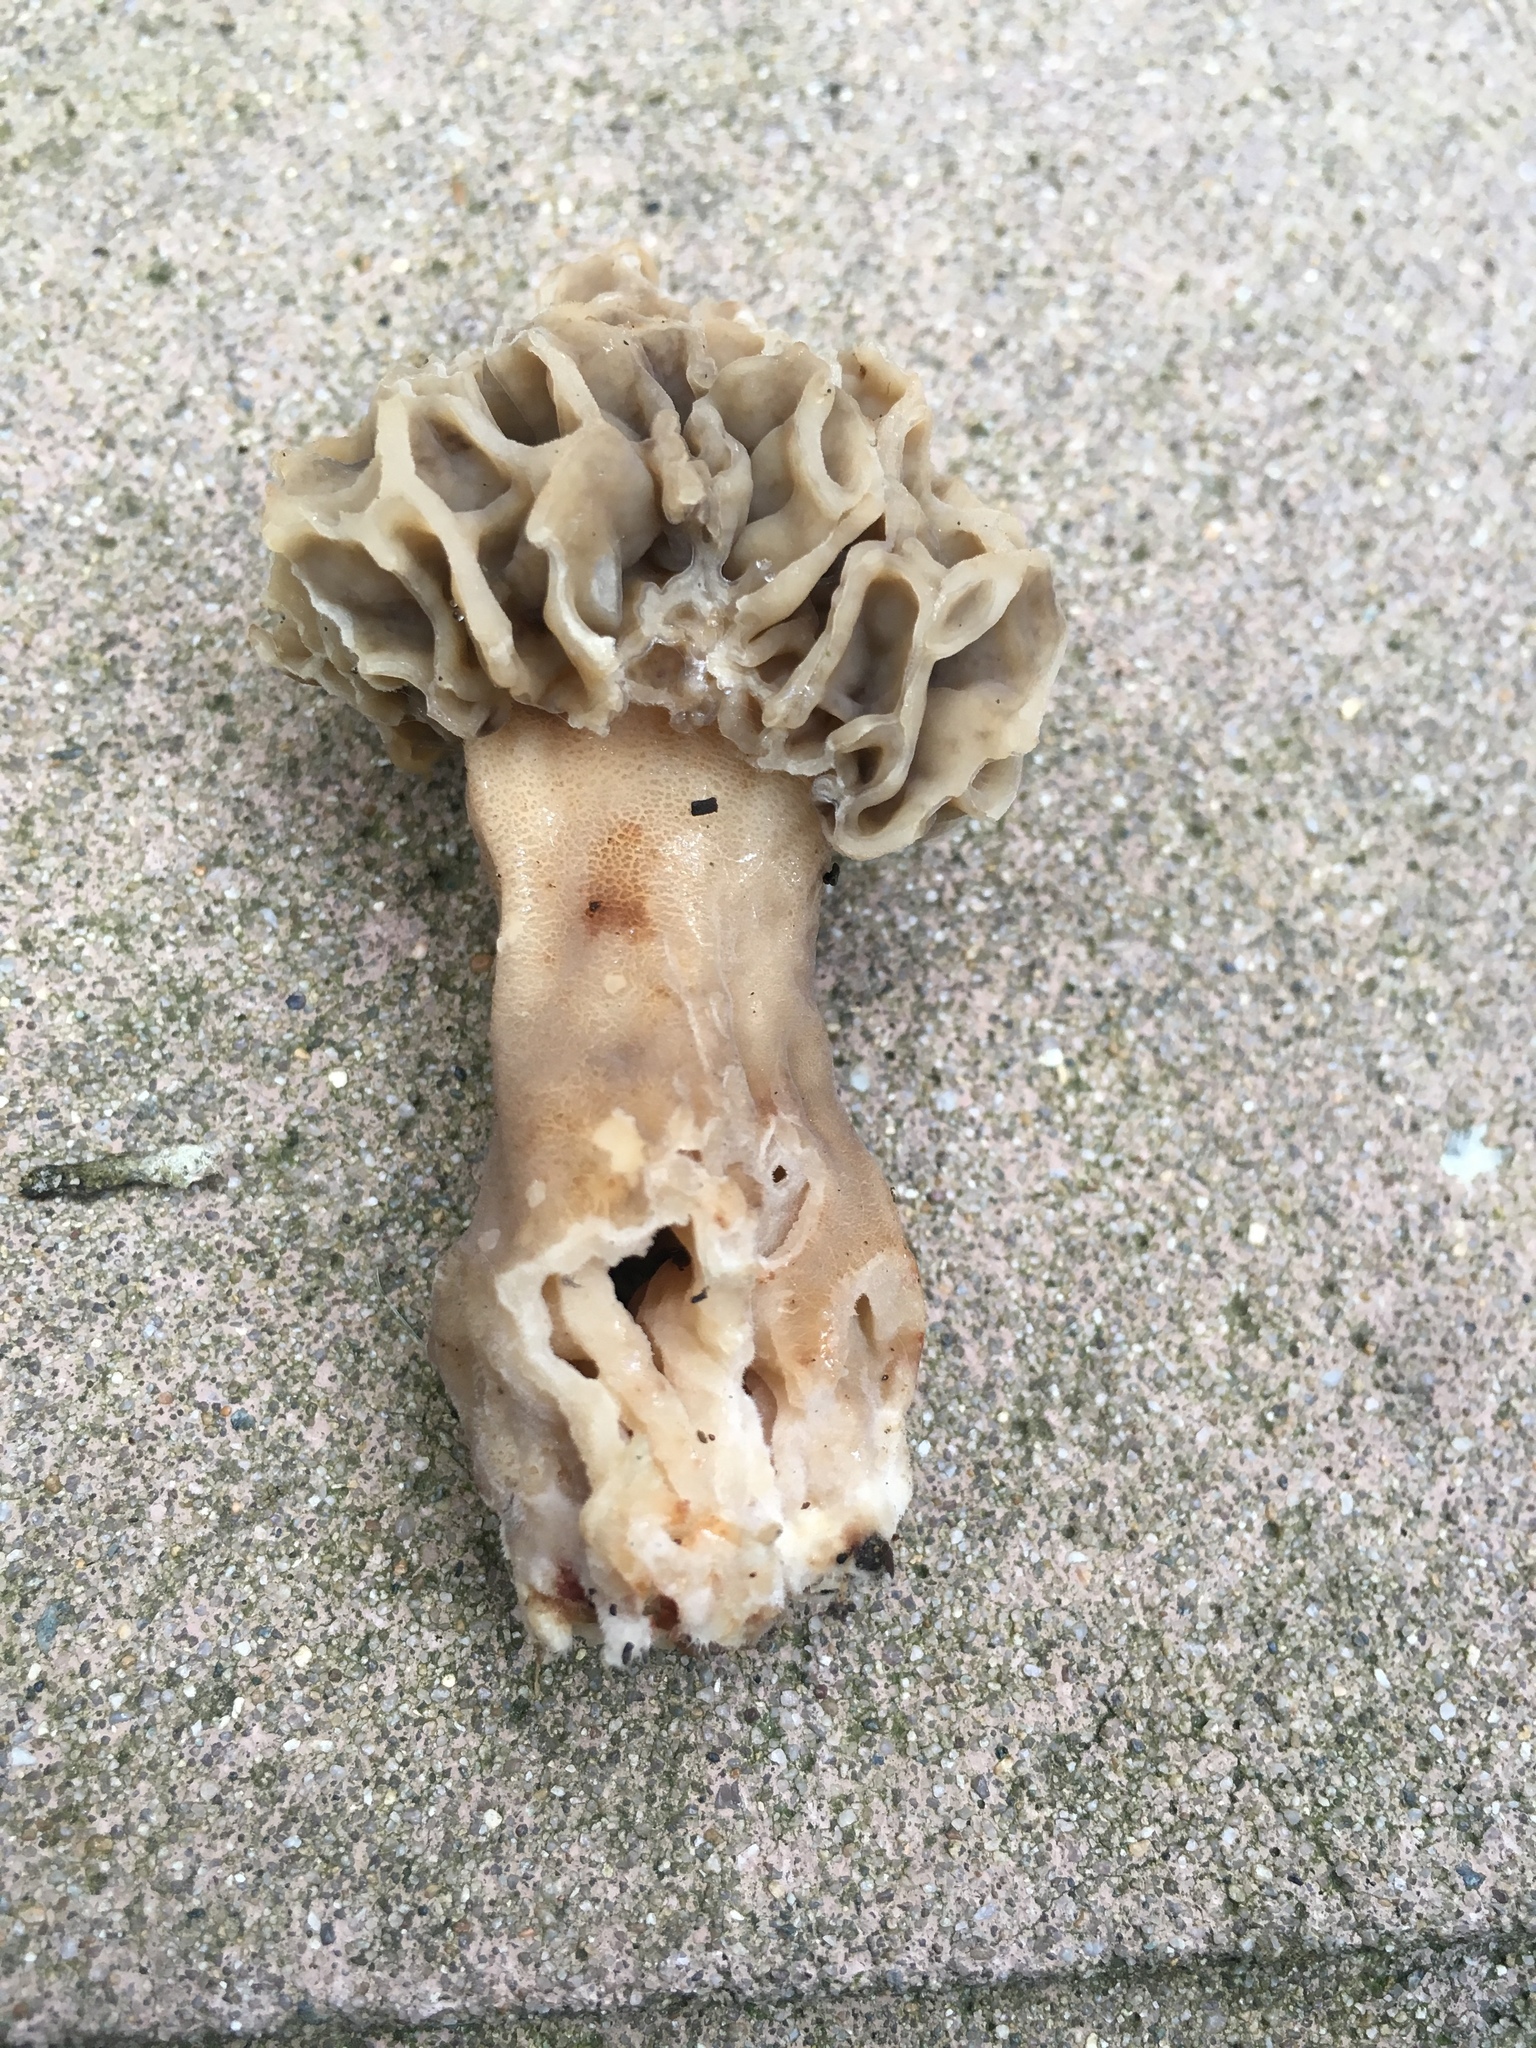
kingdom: Fungi
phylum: Ascomycota
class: Pezizomycetes
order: Pezizales
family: Morchellaceae
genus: Morchella
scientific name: Morchella rufobrunnea
